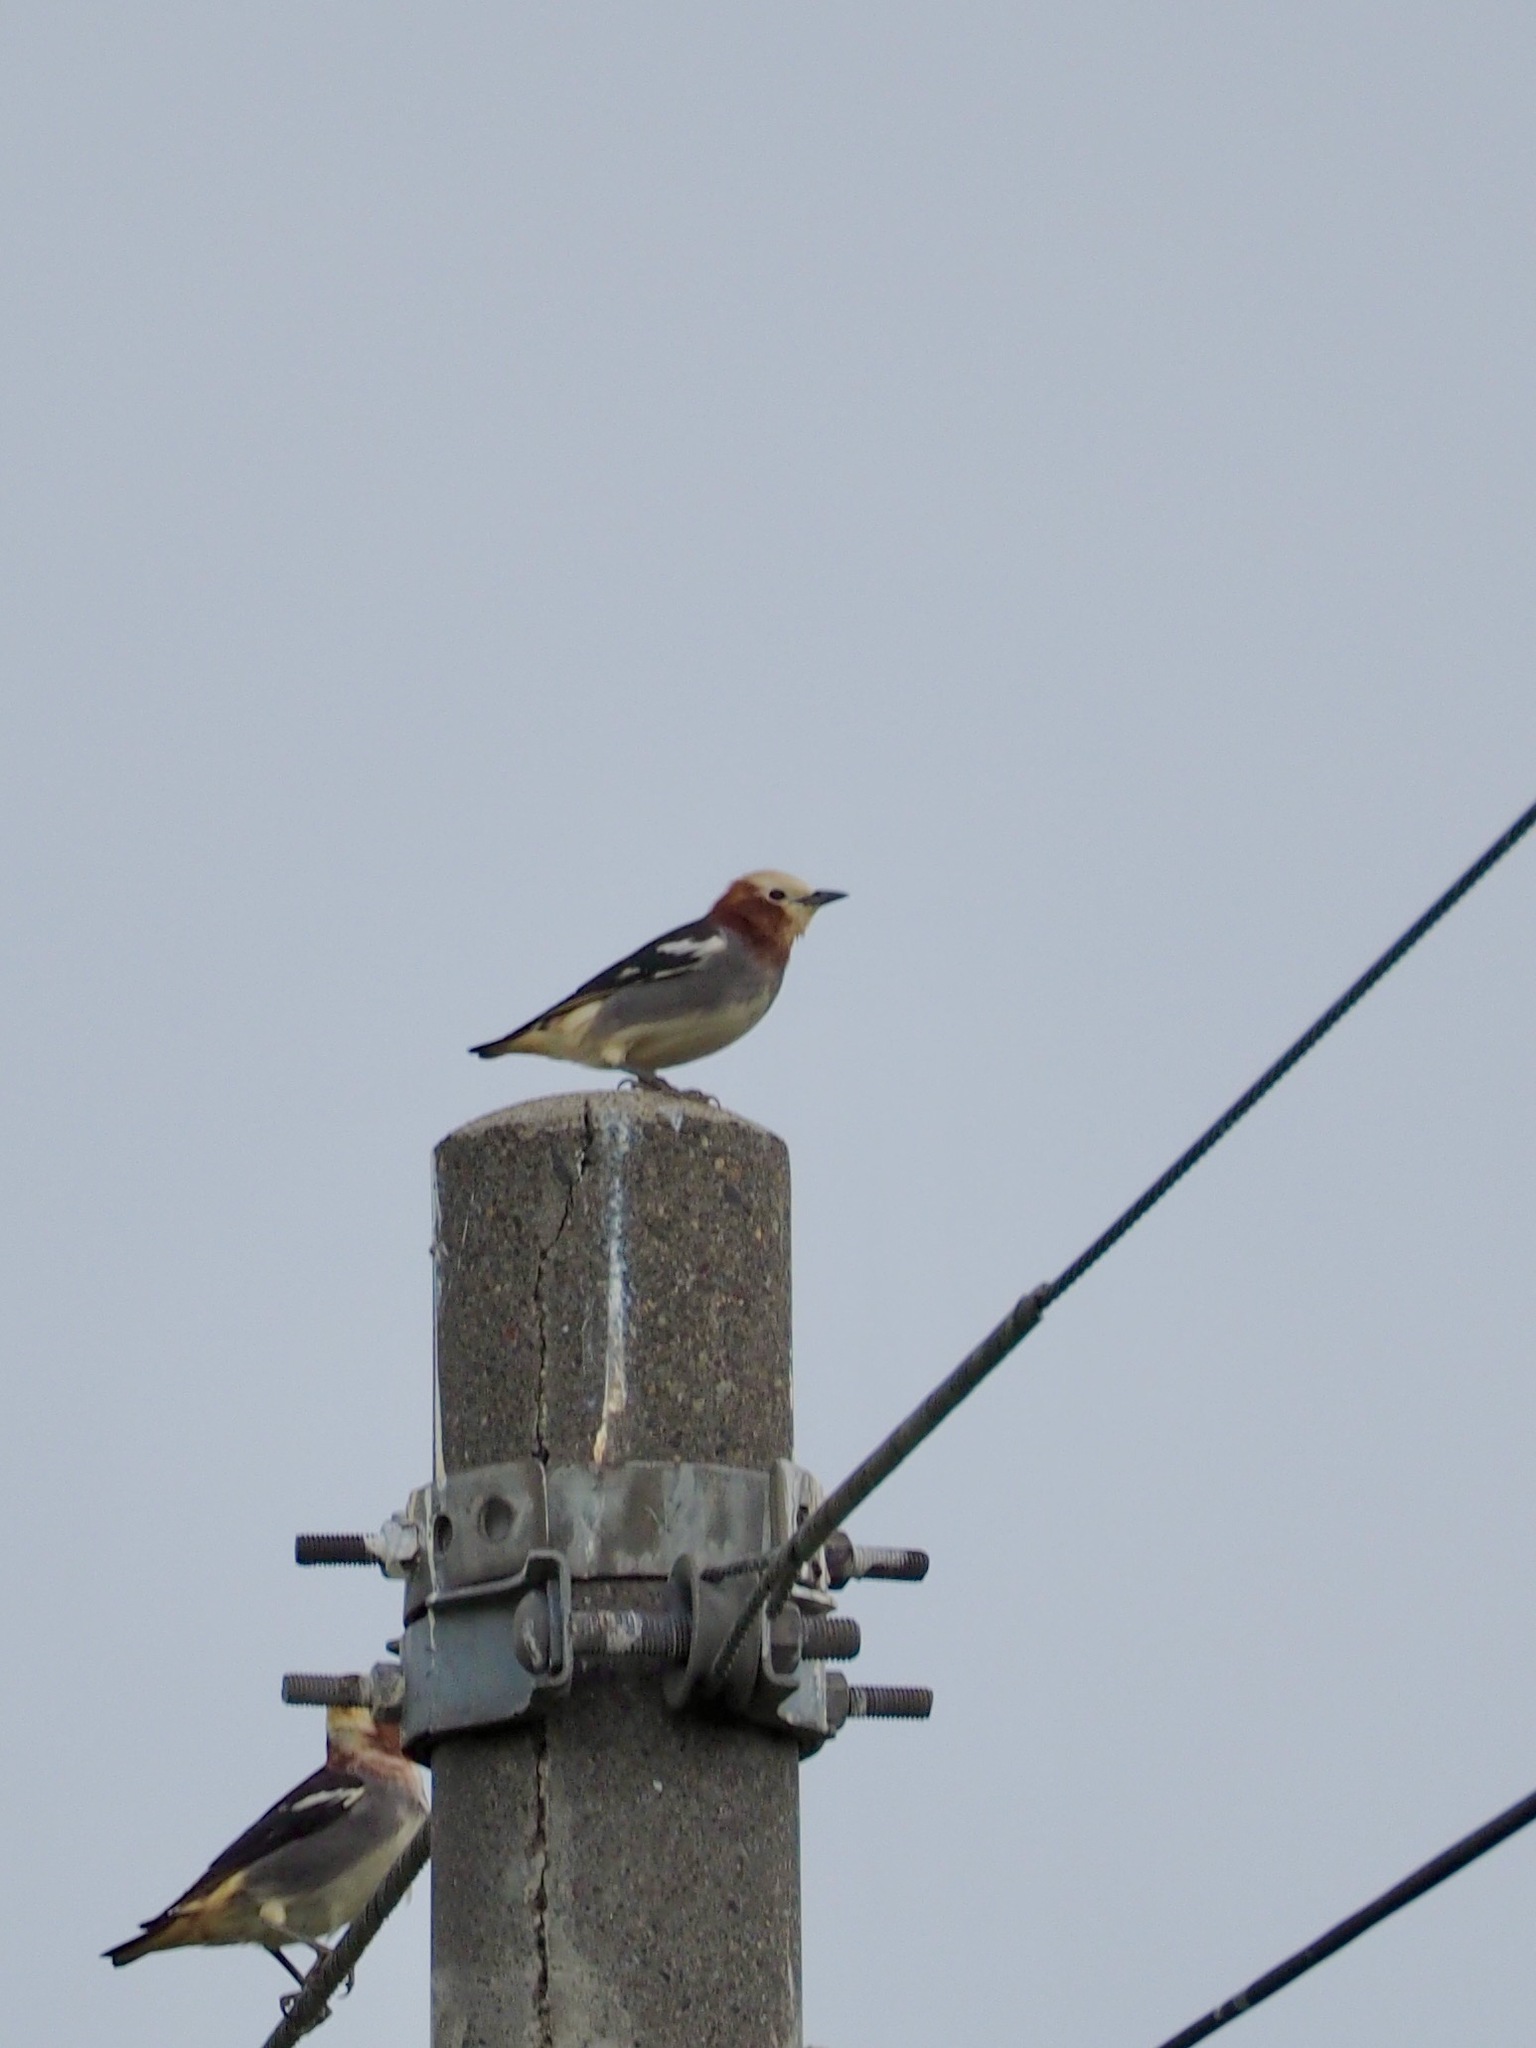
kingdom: Animalia
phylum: Chordata
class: Aves
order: Passeriformes
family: Sturnidae
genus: Agropsar
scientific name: Agropsar philippensis
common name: Chestnut-cheeked starling
